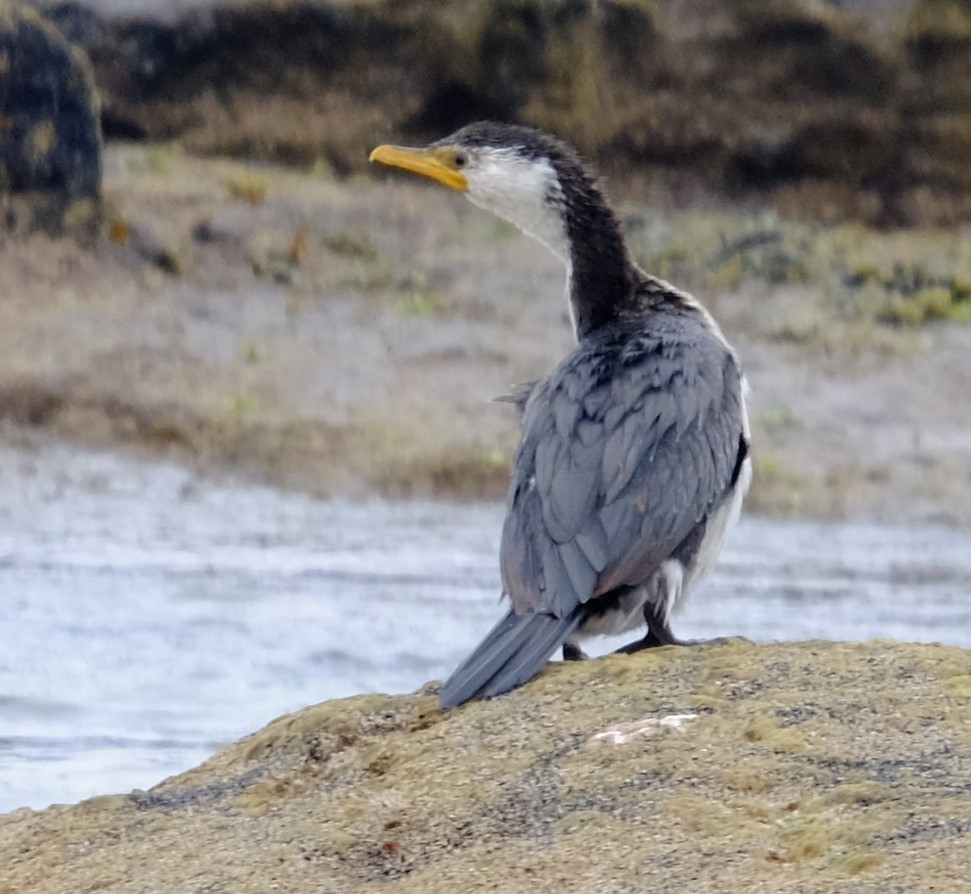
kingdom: Animalia
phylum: Chordata
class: Aves
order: Suliformes
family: Phalacrocoracidae
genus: Microcarbo
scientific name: Microcarbo melanoleucos
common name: Little pied cormorant
